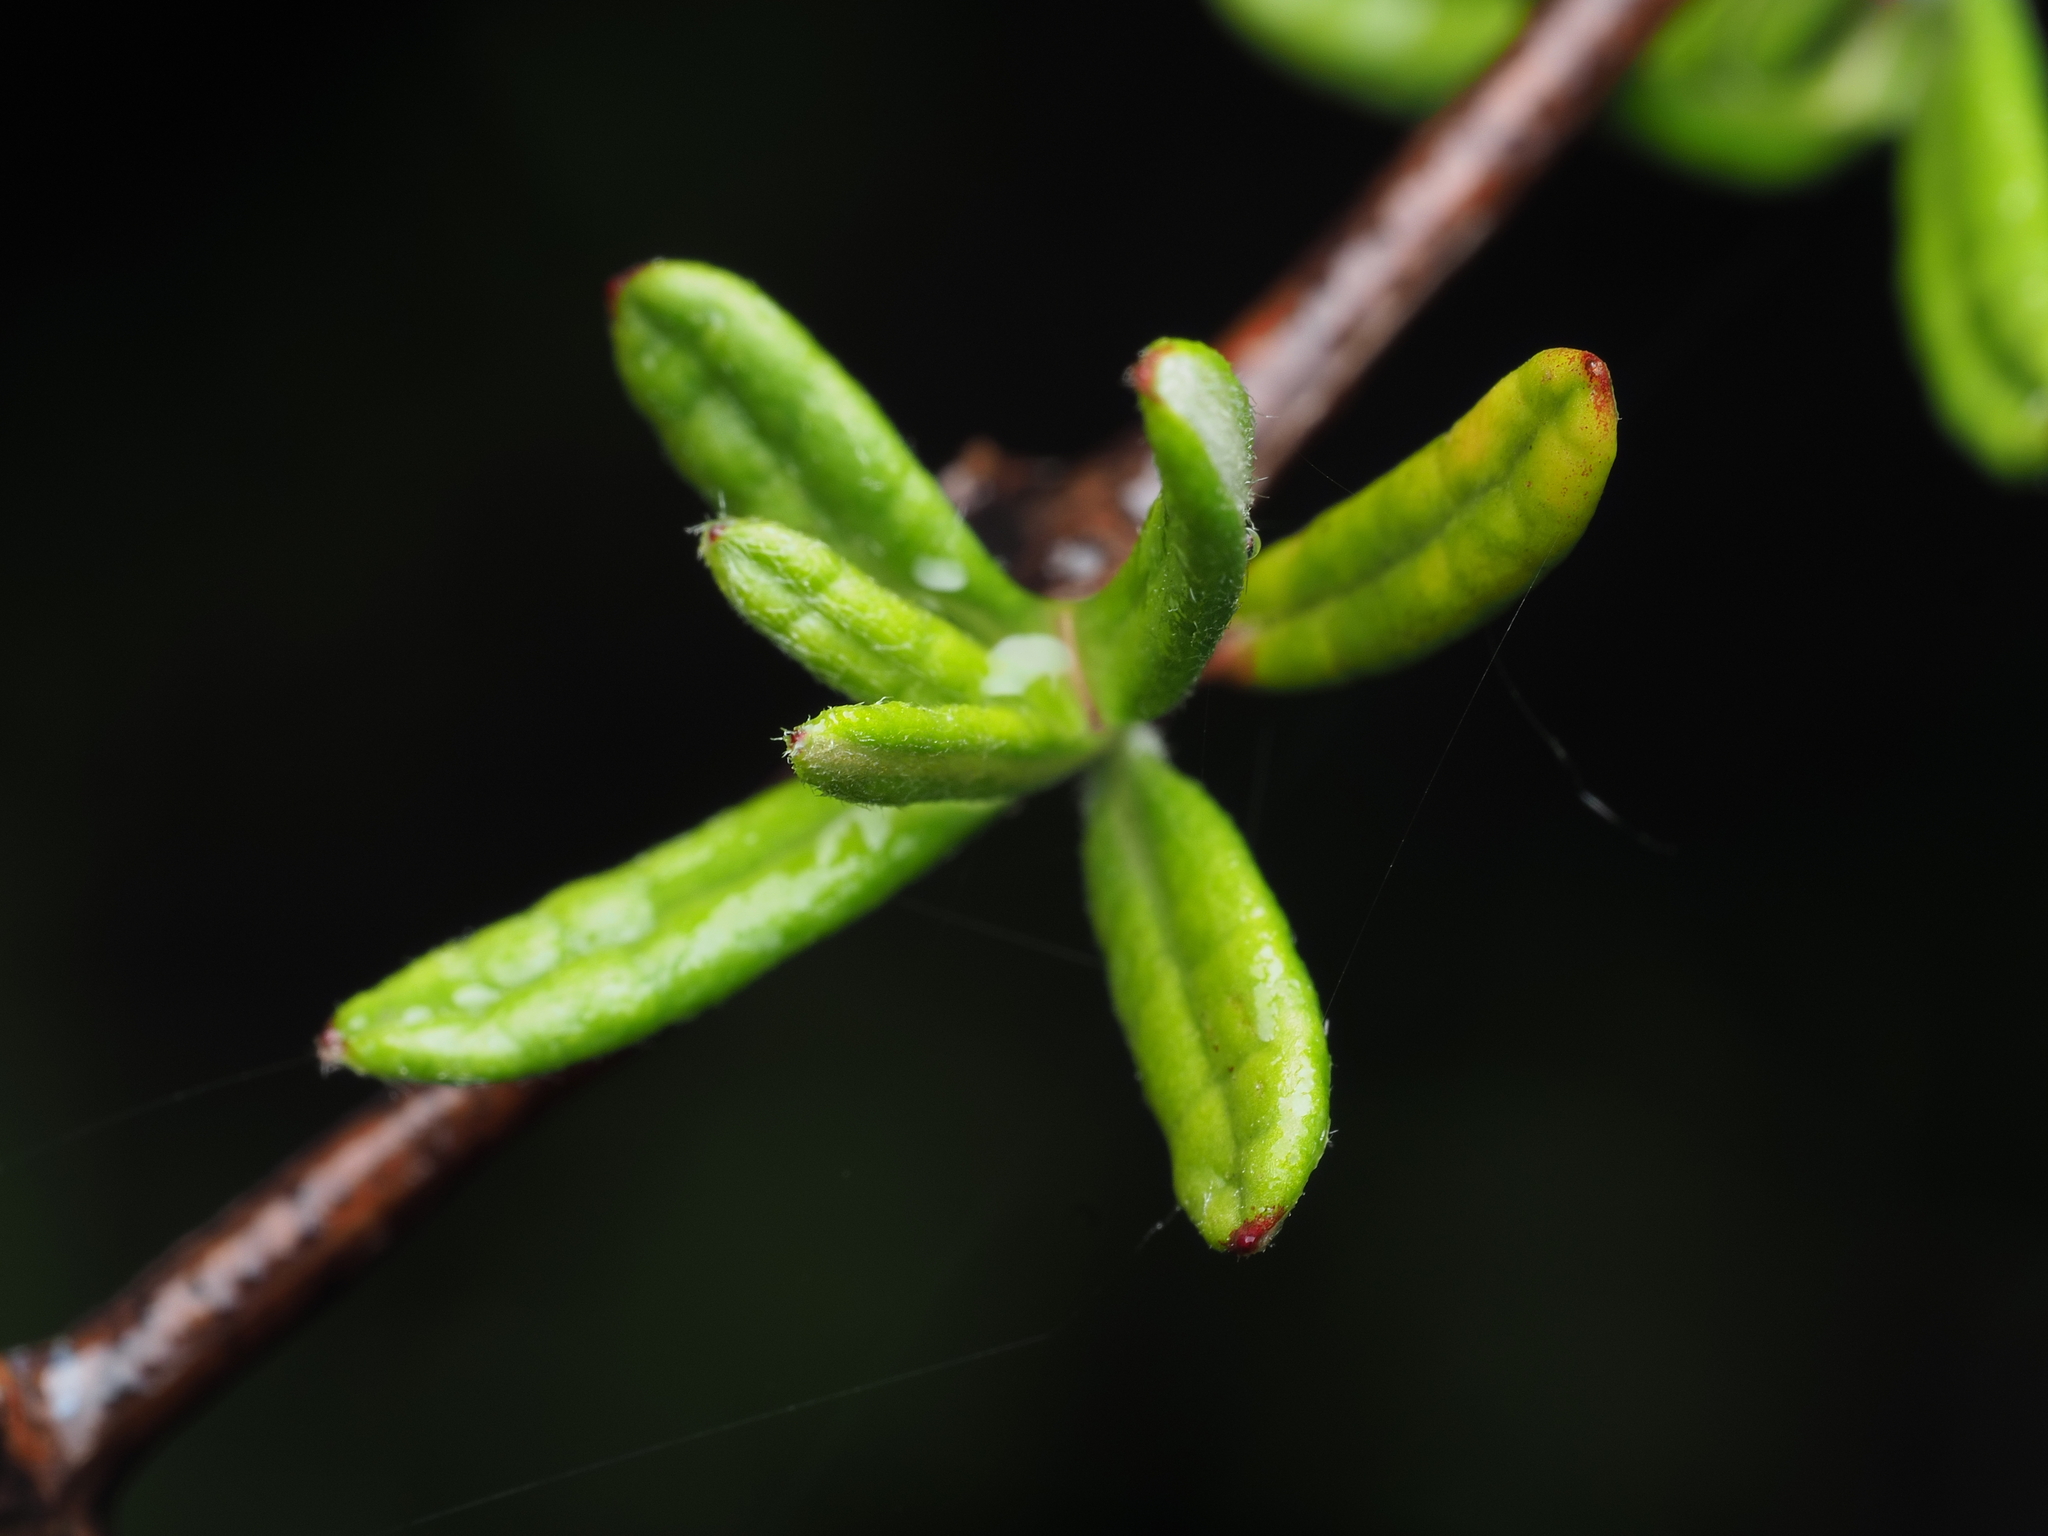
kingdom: Plantae
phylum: Tracheophyta
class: Magnoliopsida
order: Asterales
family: Asteraceae
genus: Olearia
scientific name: Olearia bullata
